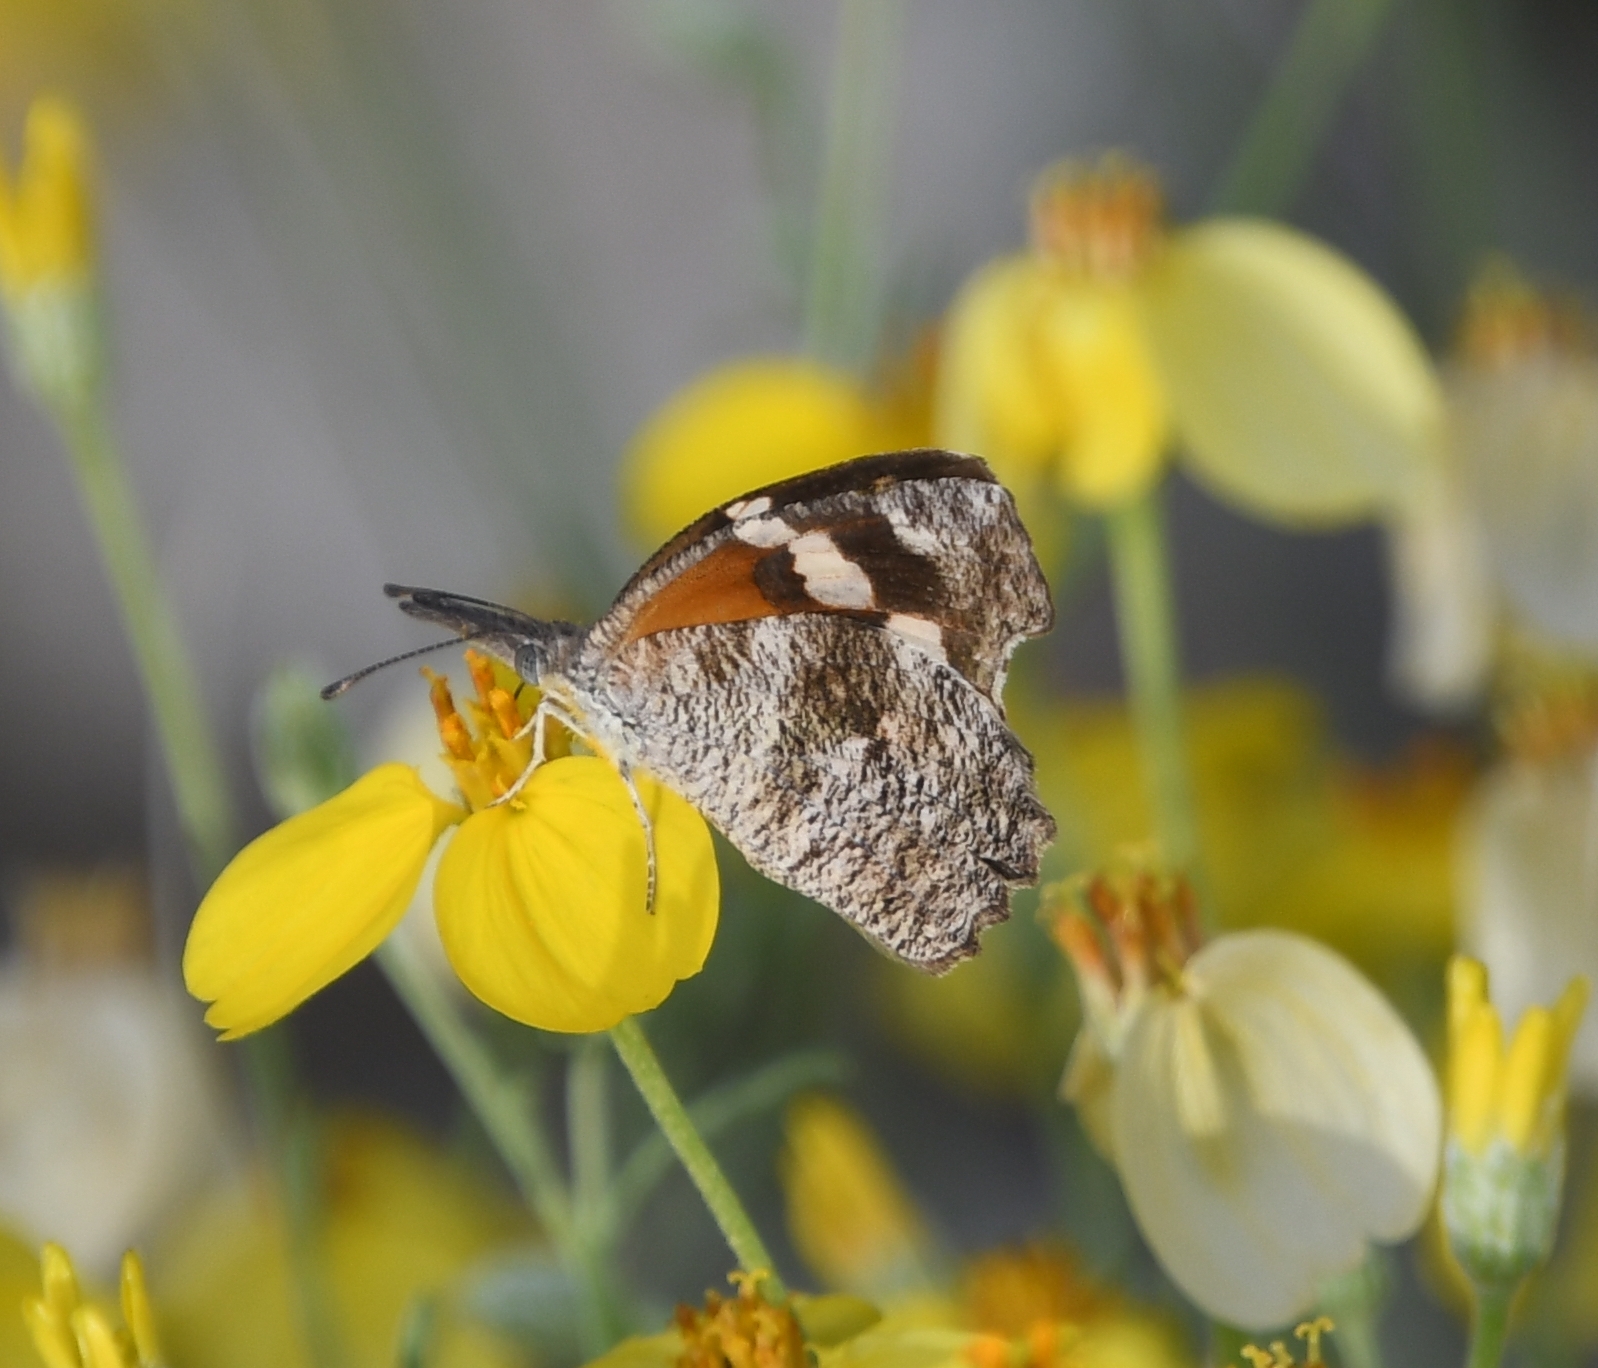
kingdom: Animalia
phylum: Arthropoda
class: Insecta
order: Lepidoptera
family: Nymphalidae
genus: Libytheana
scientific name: Libytheana carinenta
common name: American snout
